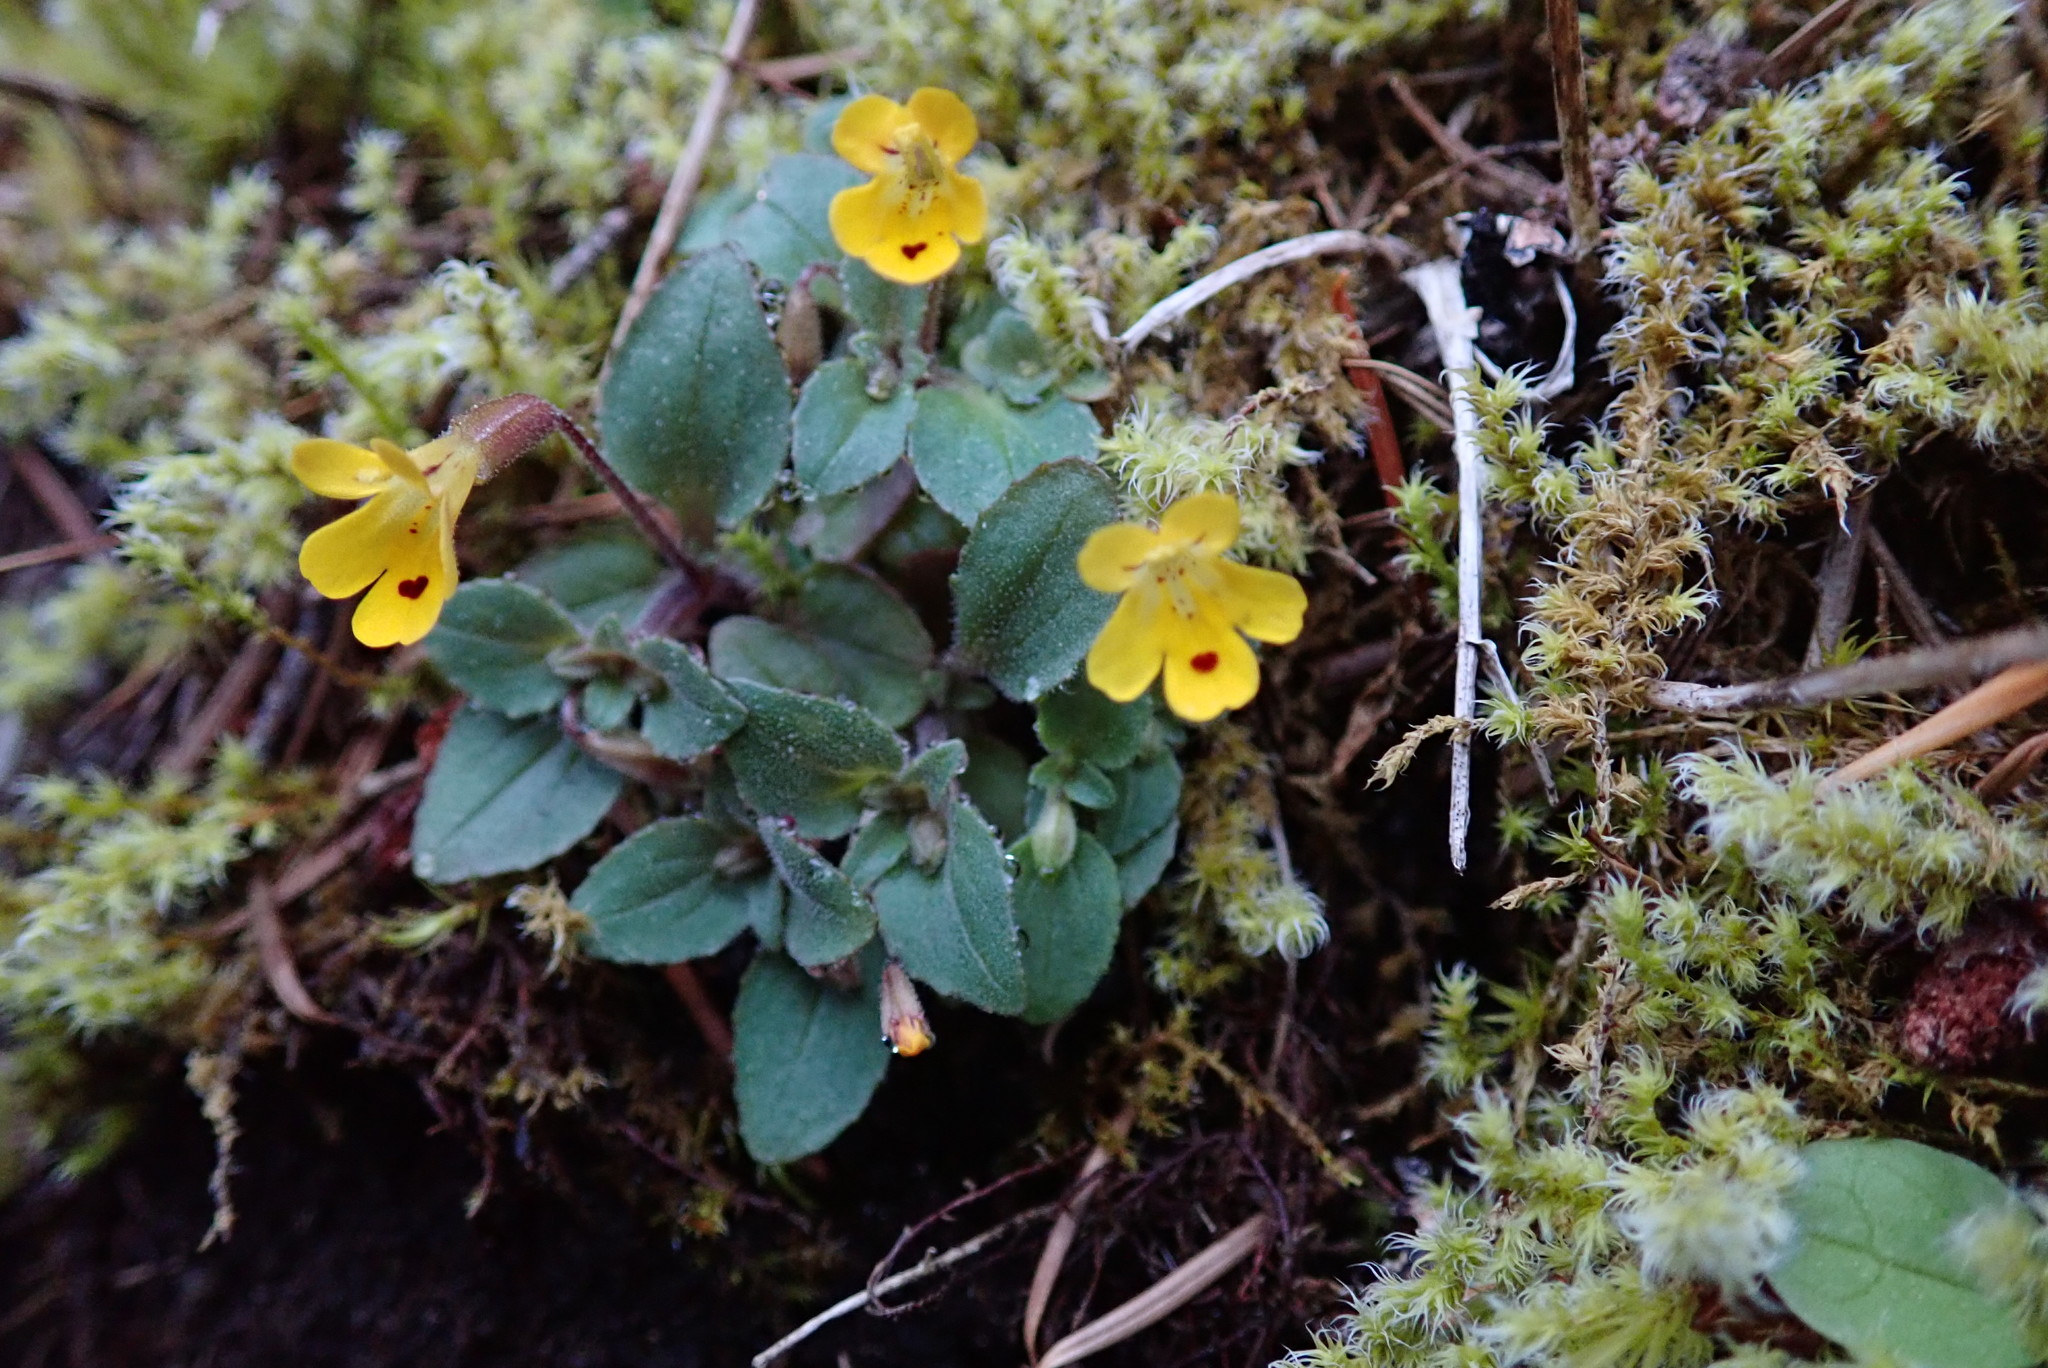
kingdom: Plantae
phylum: Tracheophyta
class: Magnoliopsida
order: Lamiales
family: Phrymaceae
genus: Erythranthe
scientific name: Erythranthe alsinoides
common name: Chickweed monkeyflower
